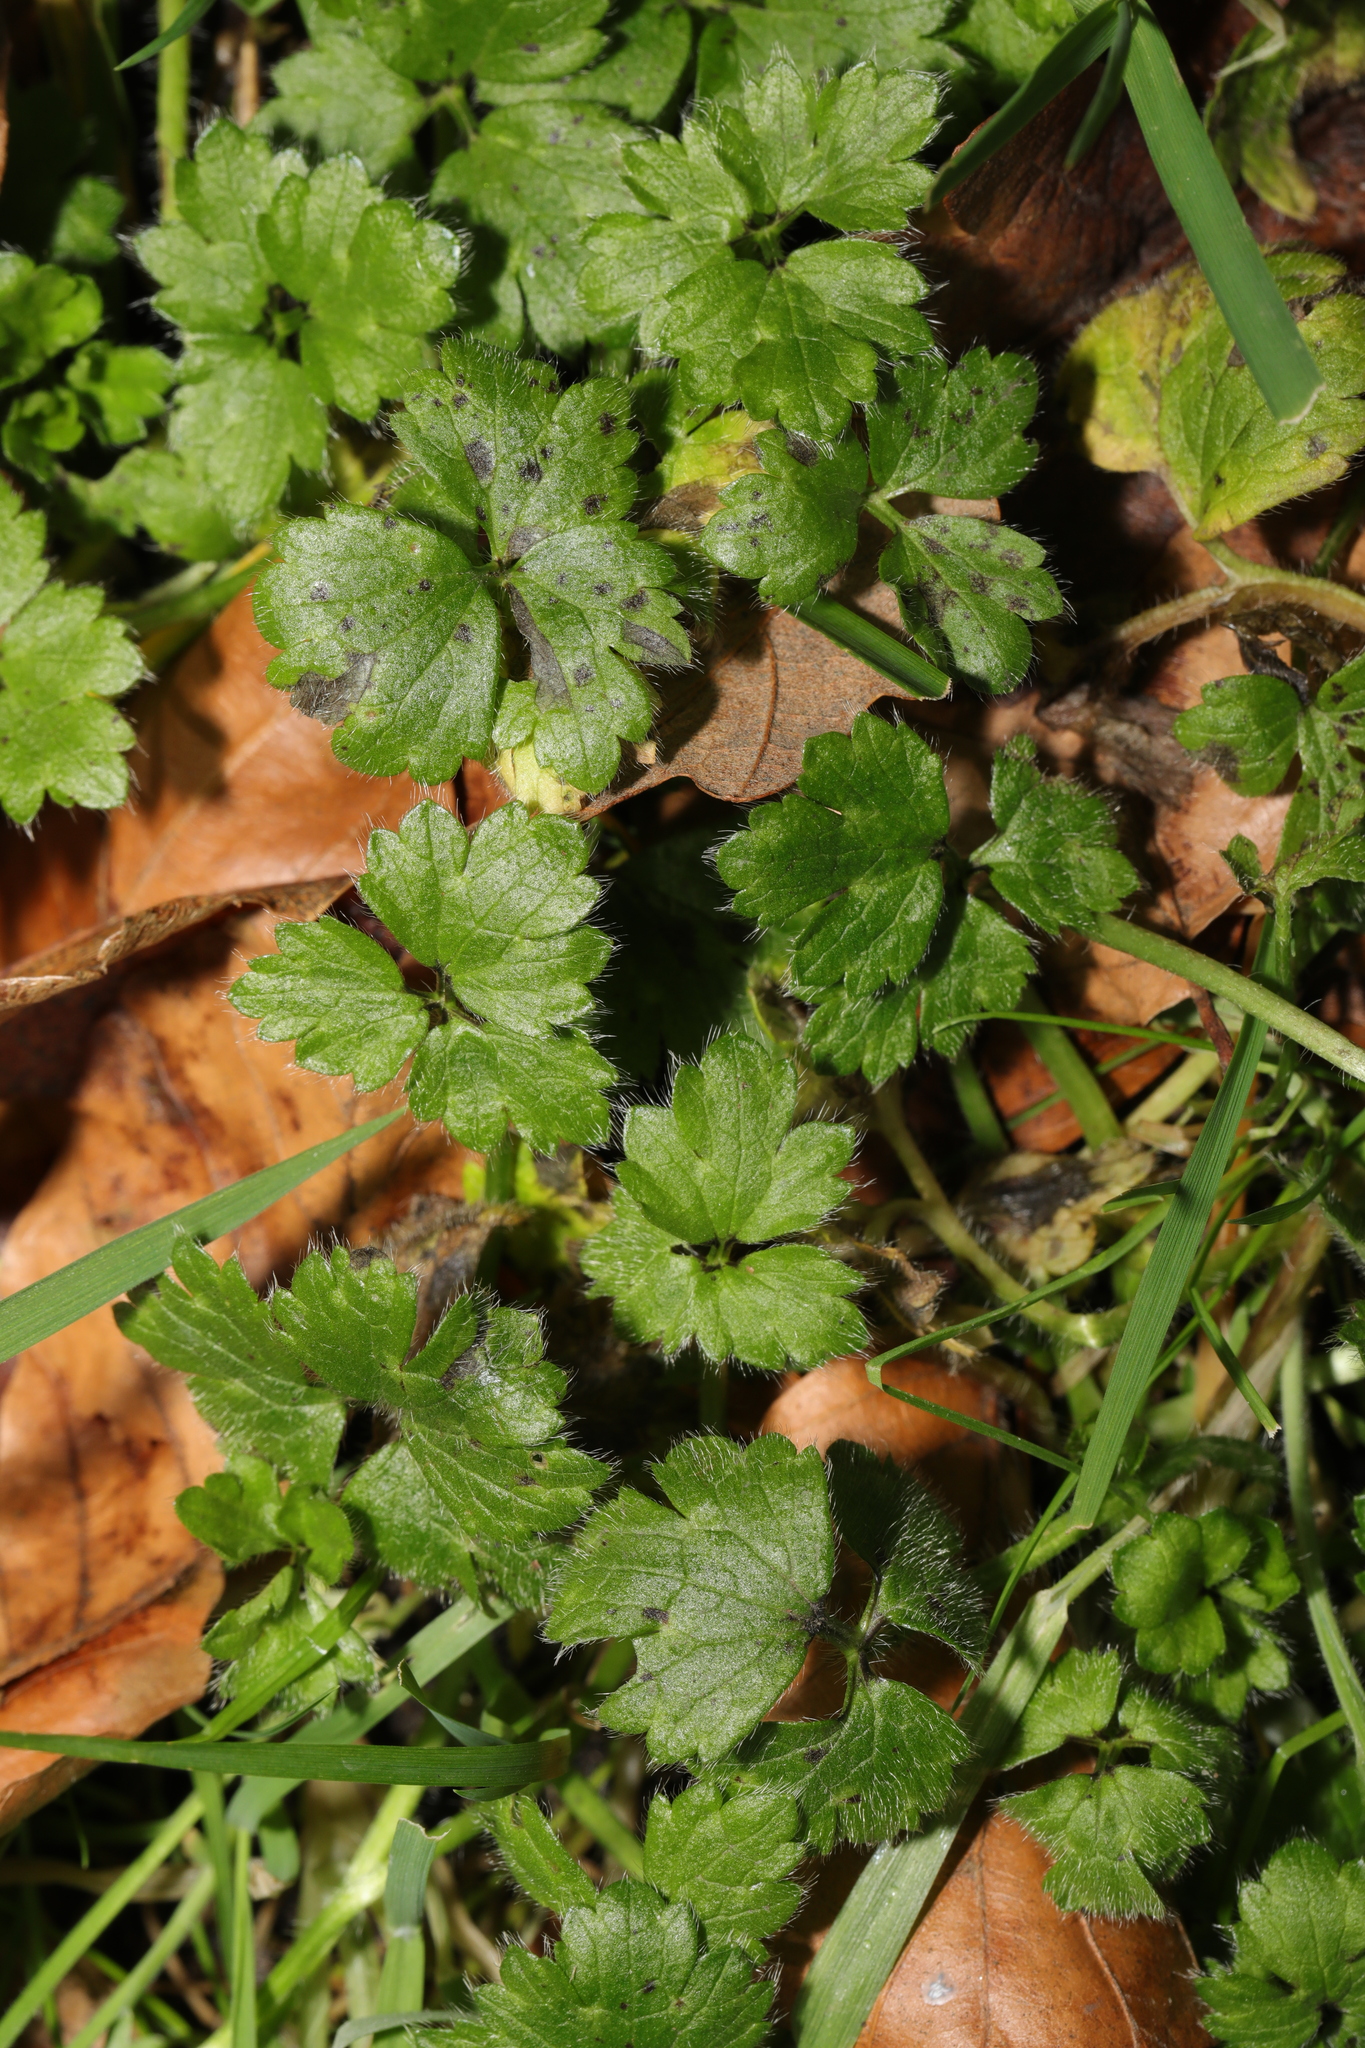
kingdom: Plantae
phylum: Tracheophyta
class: Magnoliopsida
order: Ranunculales
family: Ranunculaceae
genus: Ranunculus
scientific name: Ranunculus repens
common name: Creeping buttercup
